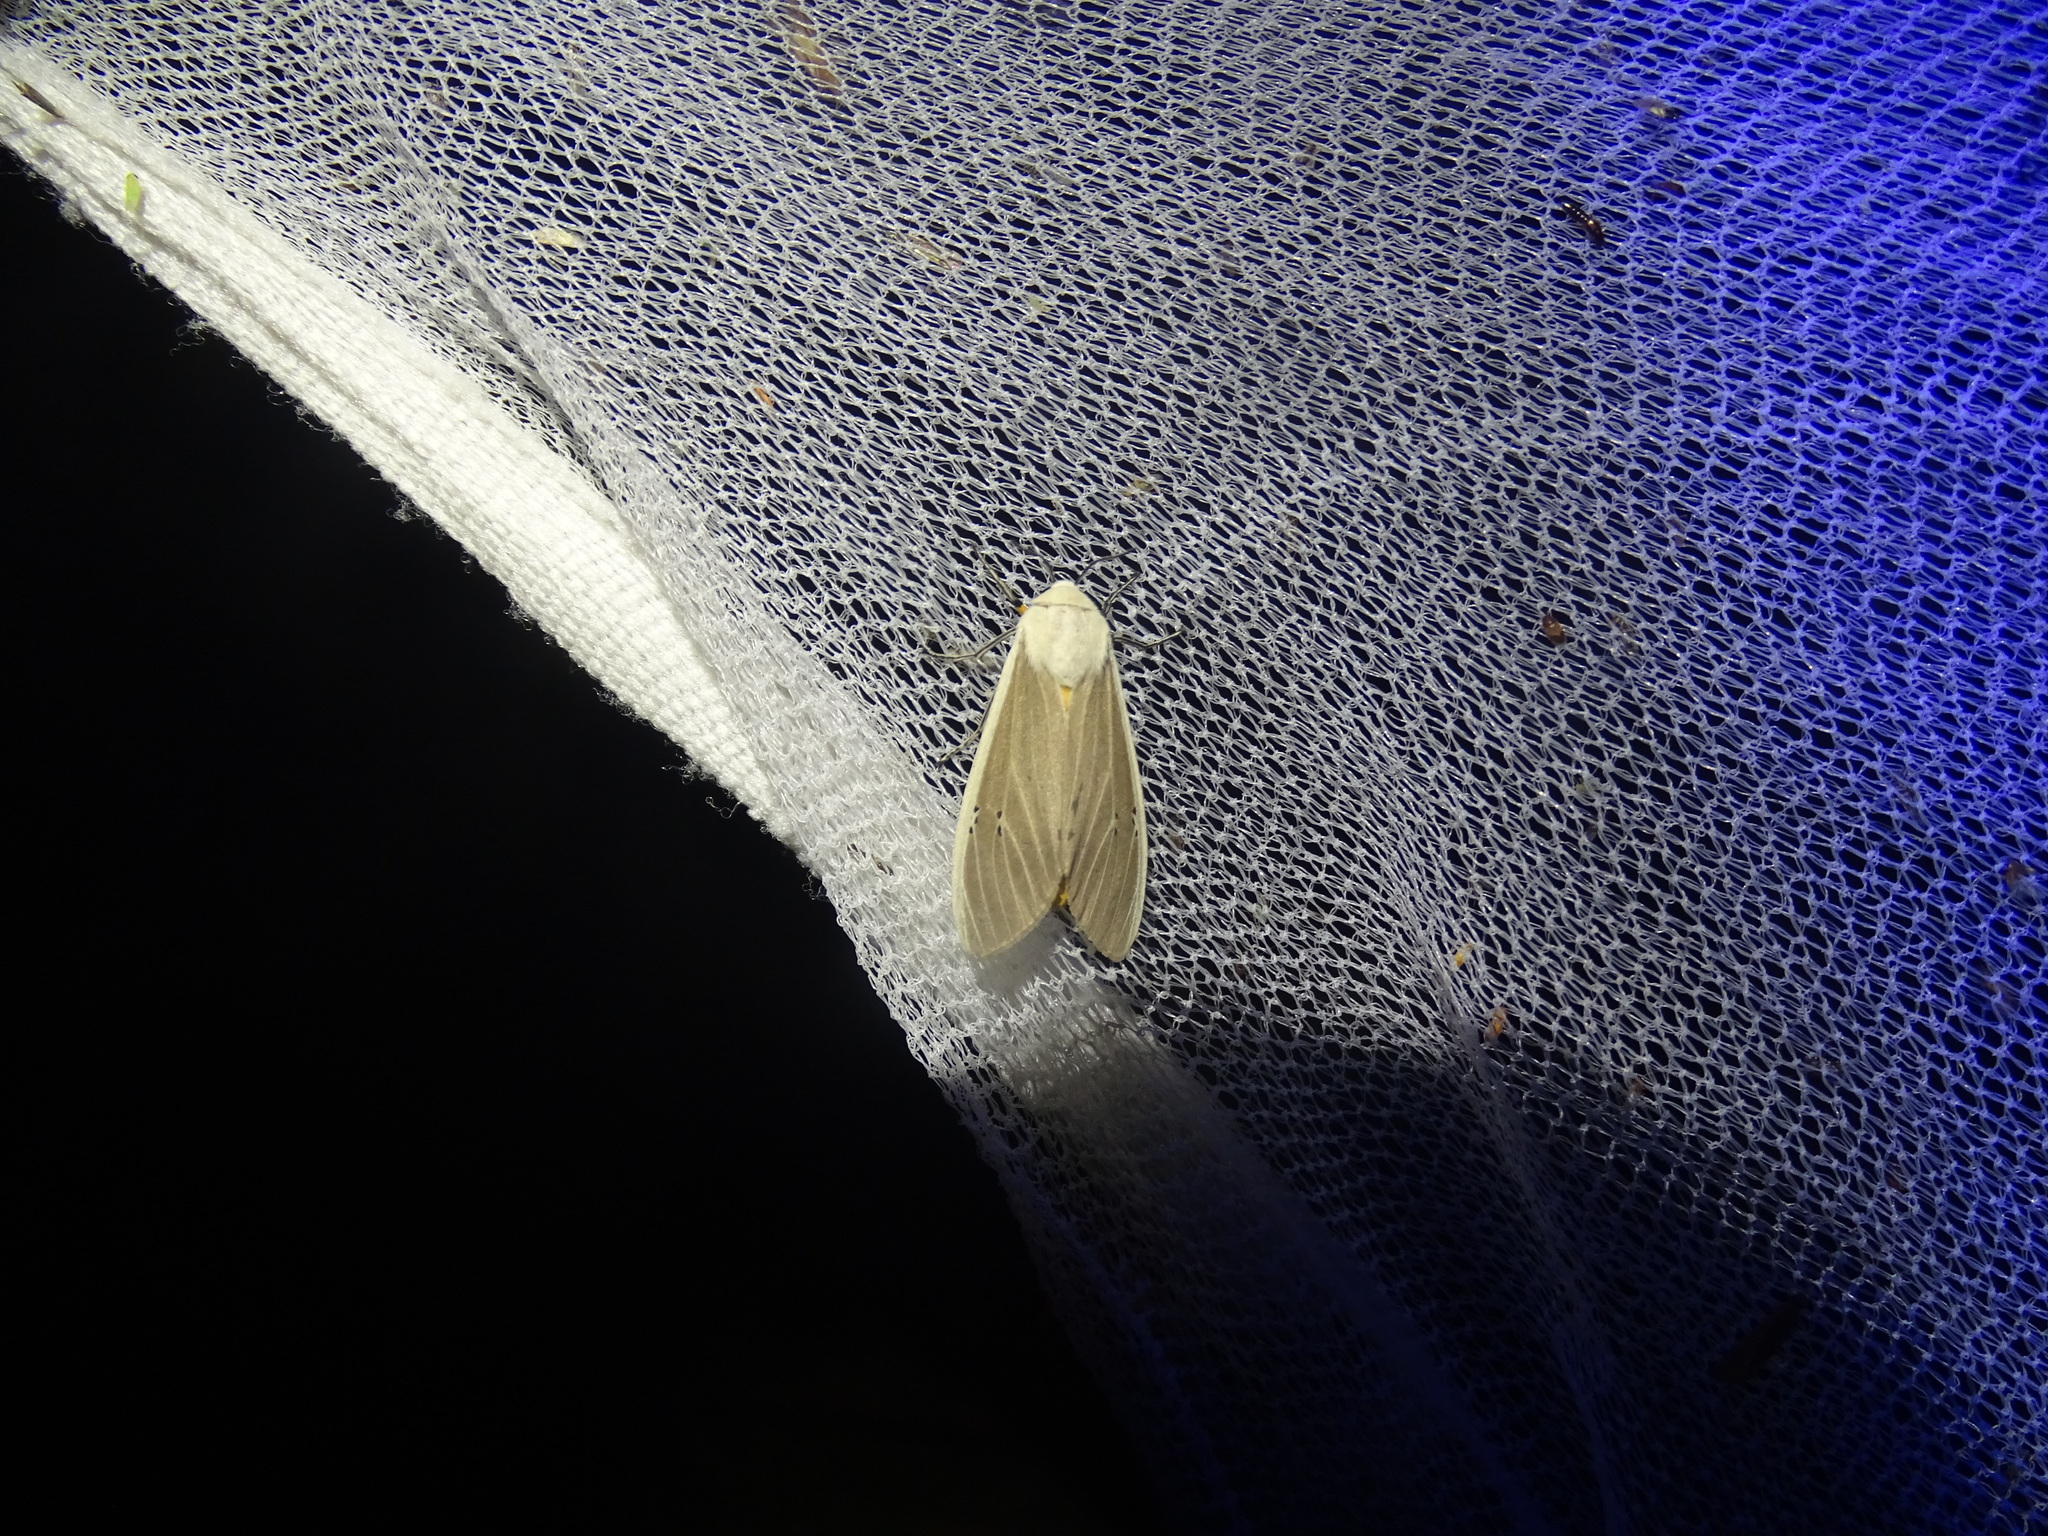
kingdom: Animalia
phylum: Arthropoda
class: Insecta
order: Lepidoptera
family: Erebidae
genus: Creatonotos
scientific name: Creatonotos transiens
